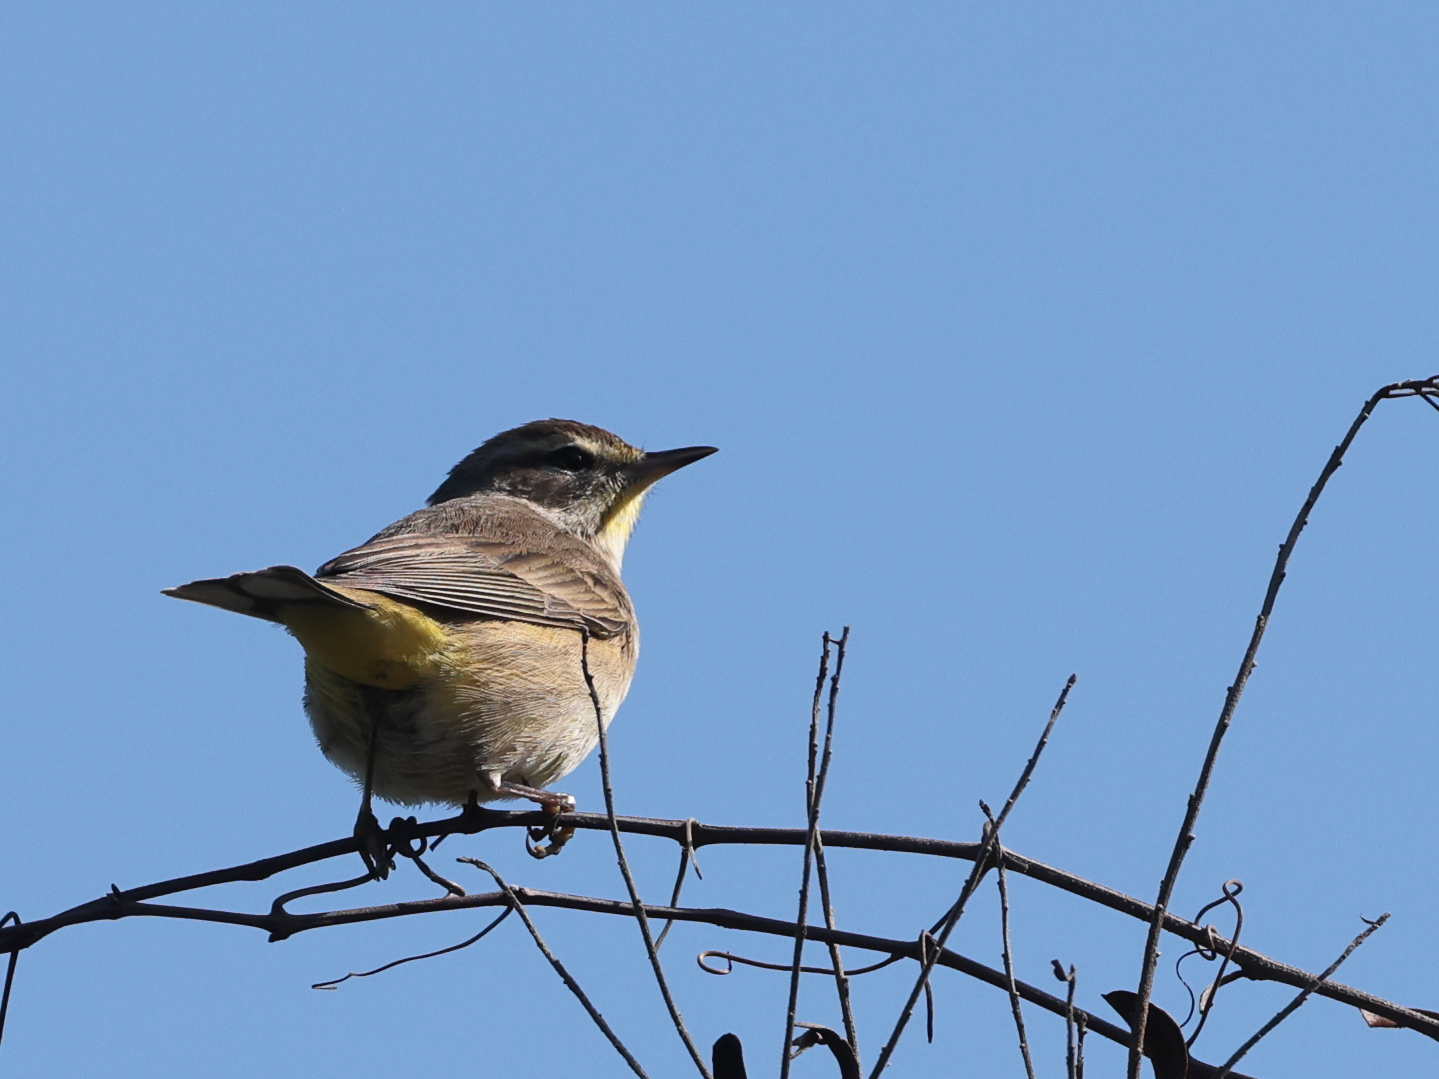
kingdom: Animalia
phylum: Chordata
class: Aves
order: Passeriformes
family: Parulidae
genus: Setophaga
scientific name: Setophaga palmarum
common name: Palm warbler
